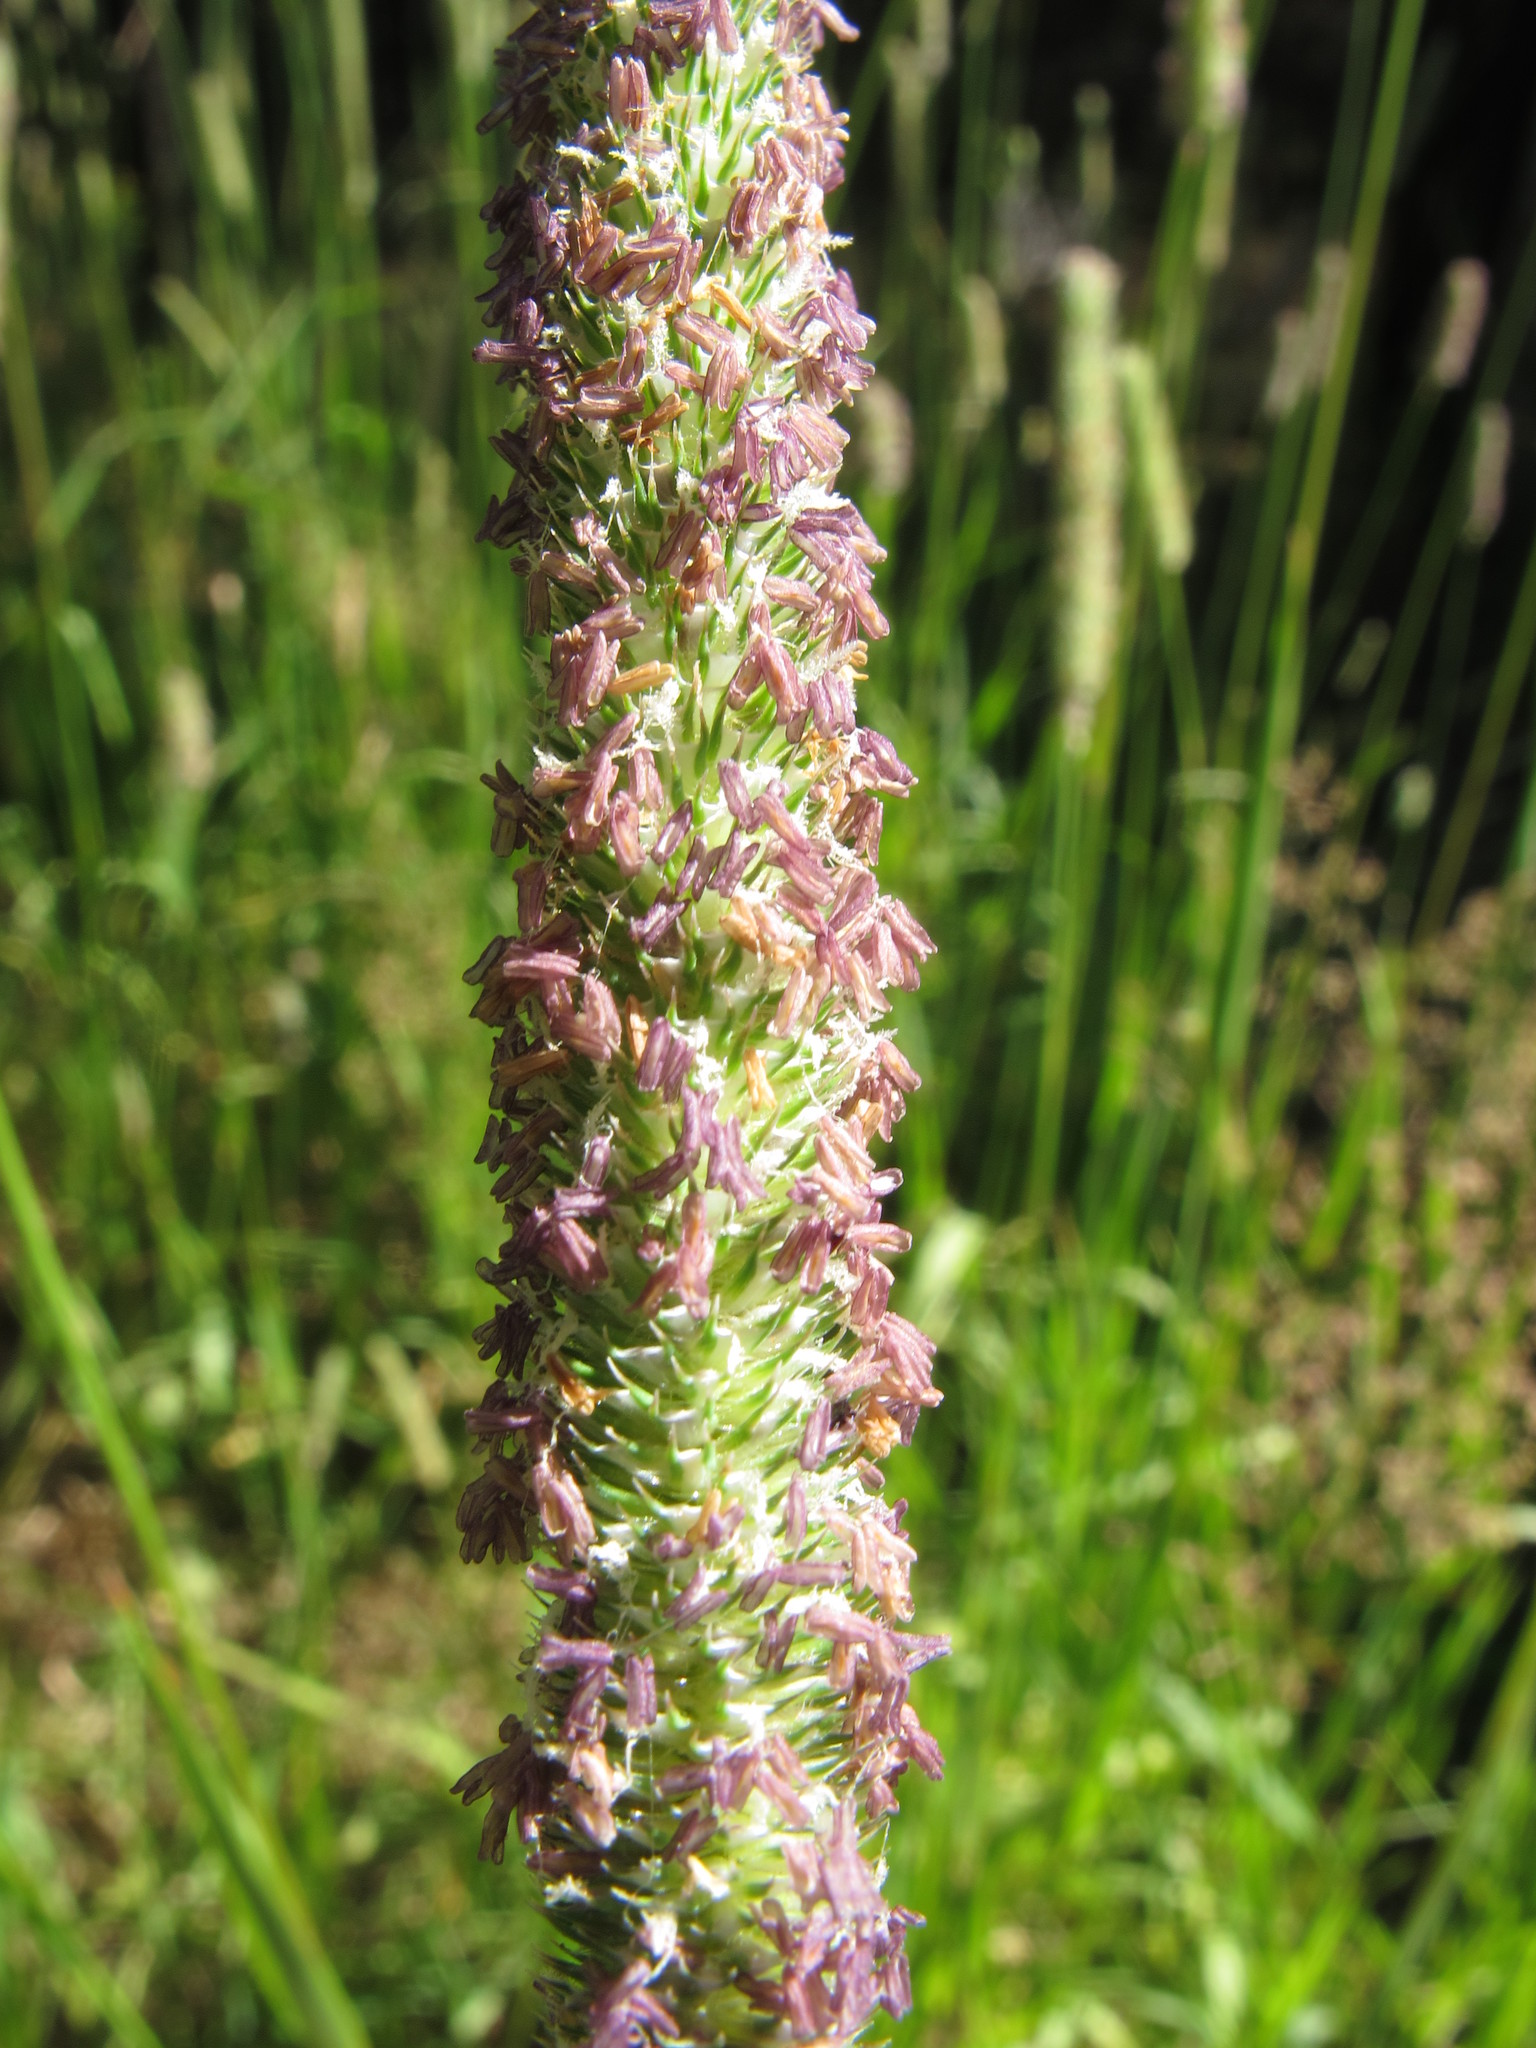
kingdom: Plantae
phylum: Tracheophyta
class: Liliopsida
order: Poales
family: Poaceae
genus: Phleum
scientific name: Phleum pratense
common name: Timothy grass
